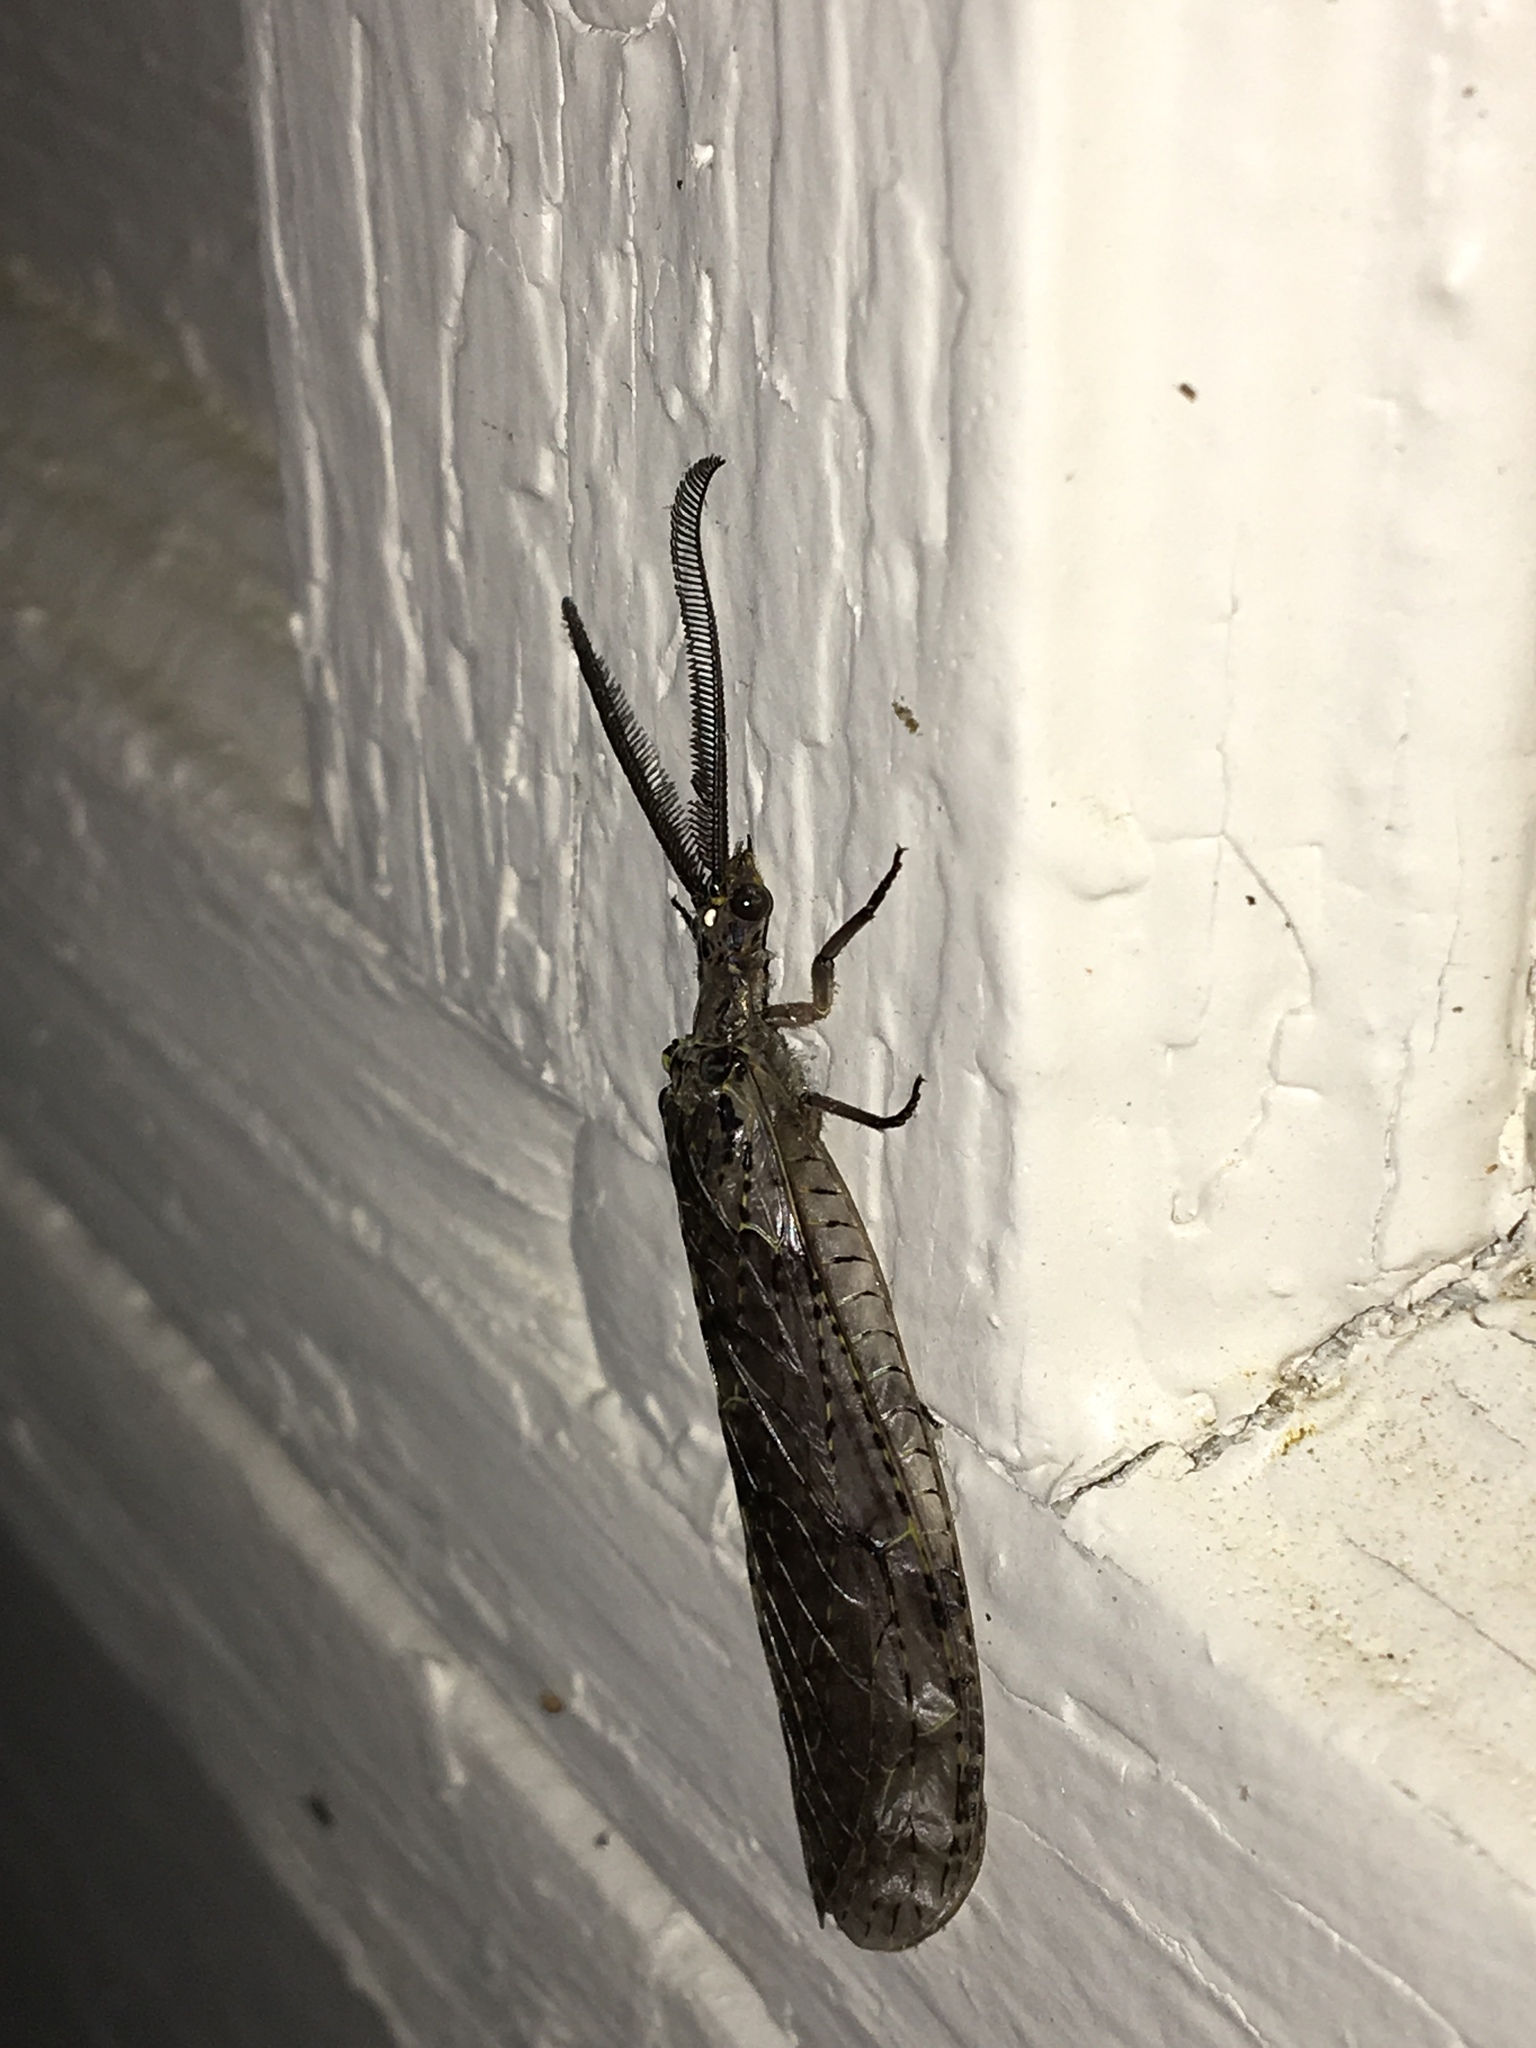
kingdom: Animalia
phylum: Arthropoda
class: Insecta
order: Megaloptera
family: Corydalidae
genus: Chauliodes
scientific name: Chauliodes rastricornis
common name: Spring fishfly
